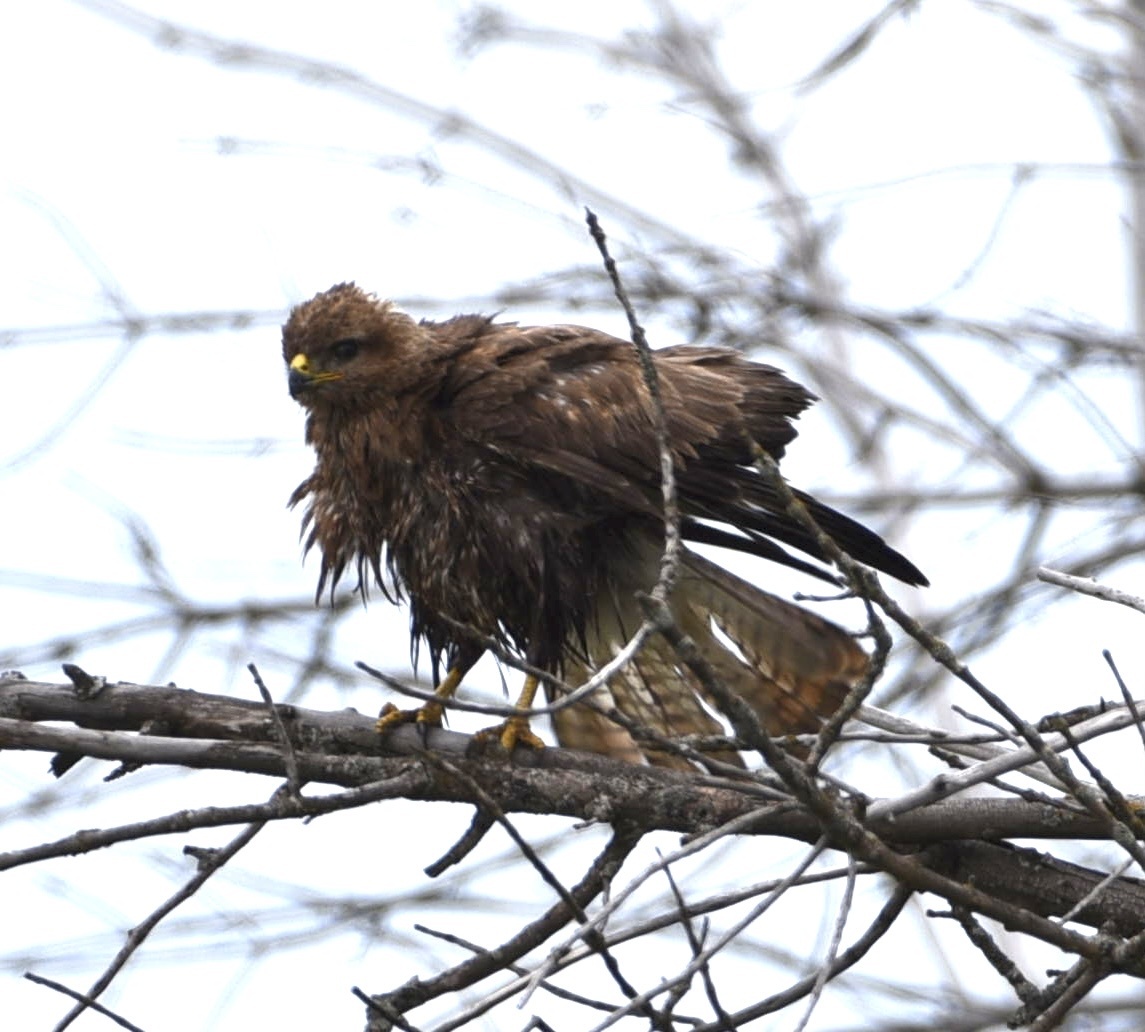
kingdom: Animalia
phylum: Chordata
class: Aves
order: Accipitriformes
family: Accipitridae
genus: Buteo
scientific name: Buteo buteo
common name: Common buzzard
